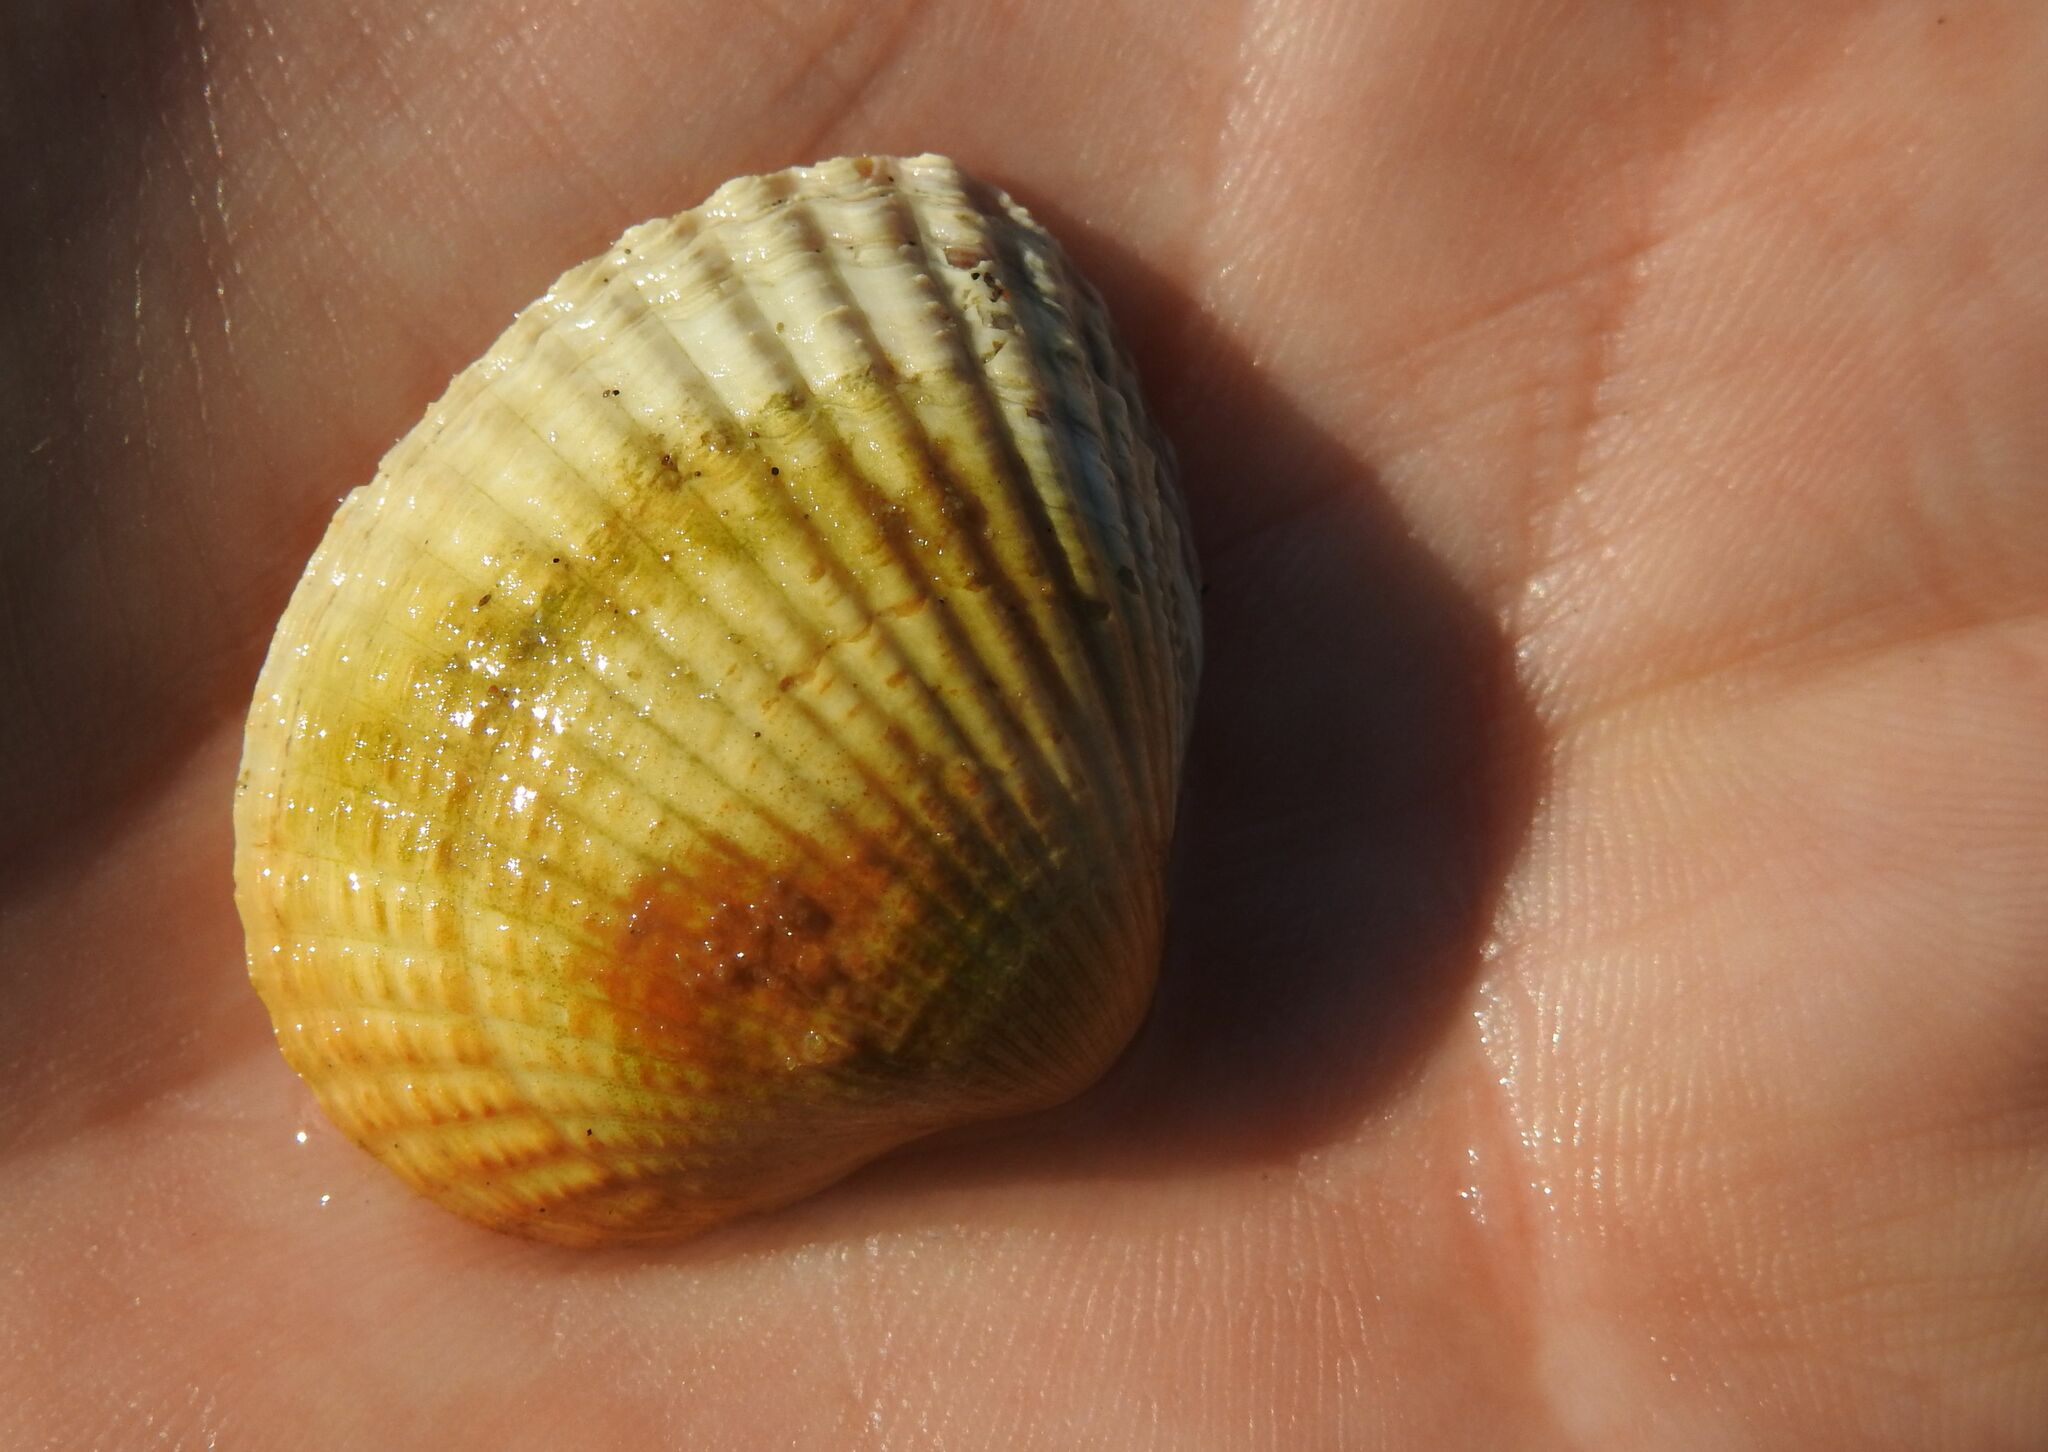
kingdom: Animalia
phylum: Mollusca
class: Bivalvia
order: Cardiida
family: Cardiidae
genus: Cerastoderma
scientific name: Cerastoderma edule
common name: Common cockle
